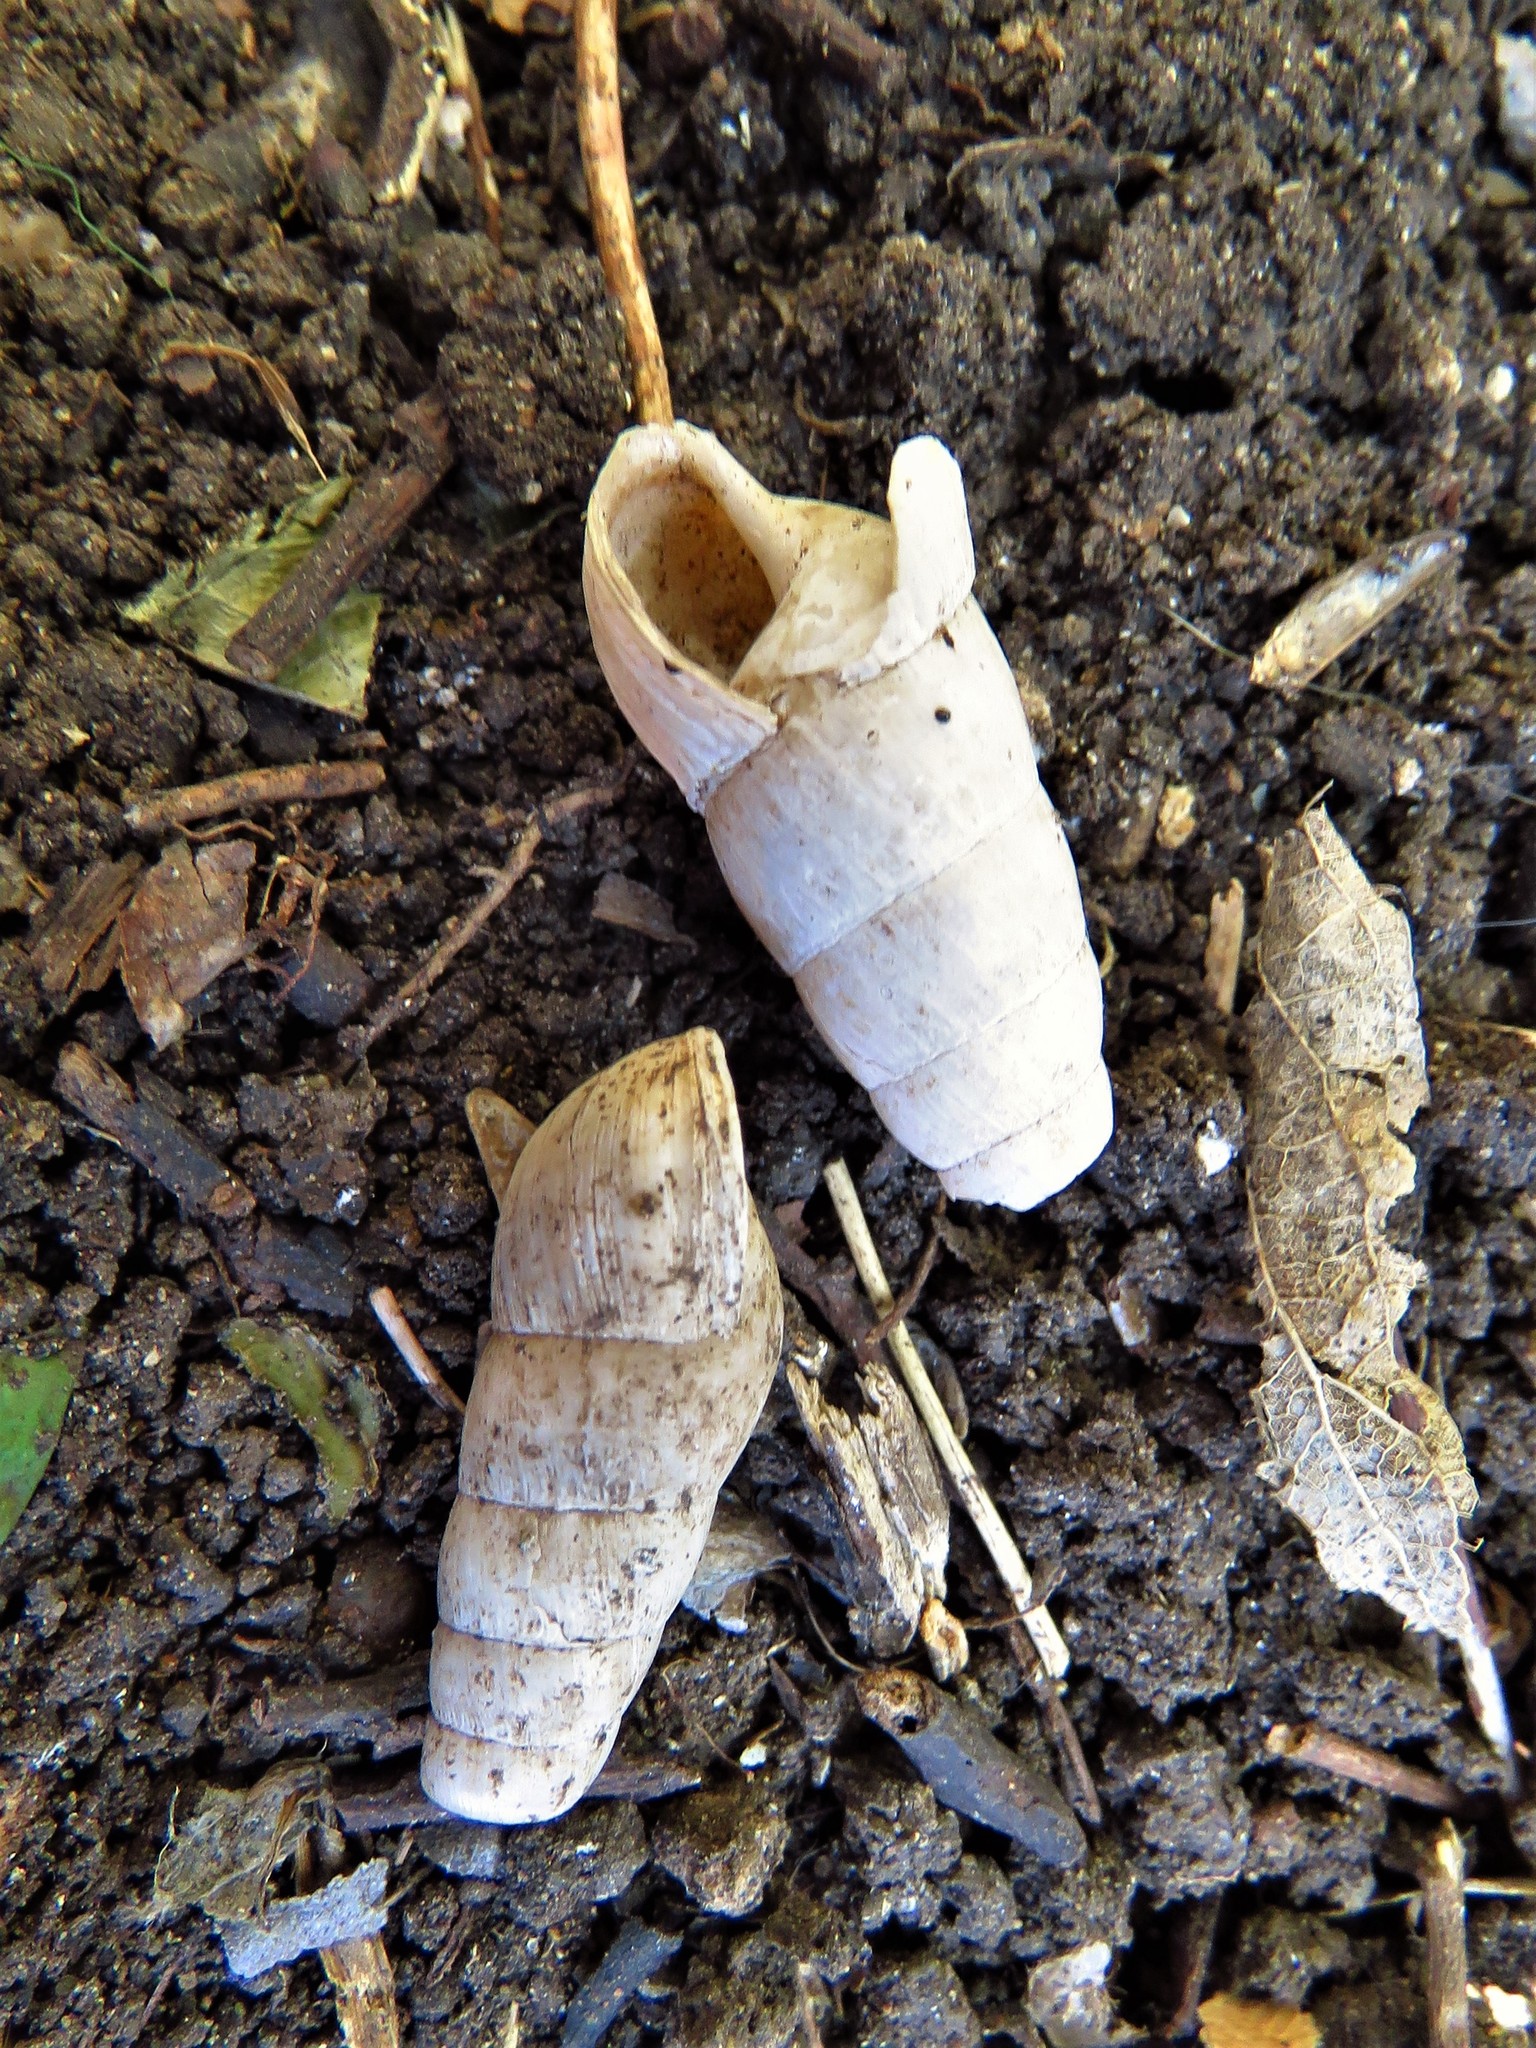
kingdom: Animalia
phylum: Mollusca
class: Gastropoda
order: Stylommatophora
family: Achatinidae
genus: Rumina
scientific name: Rumina decollata
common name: Decollate snail
